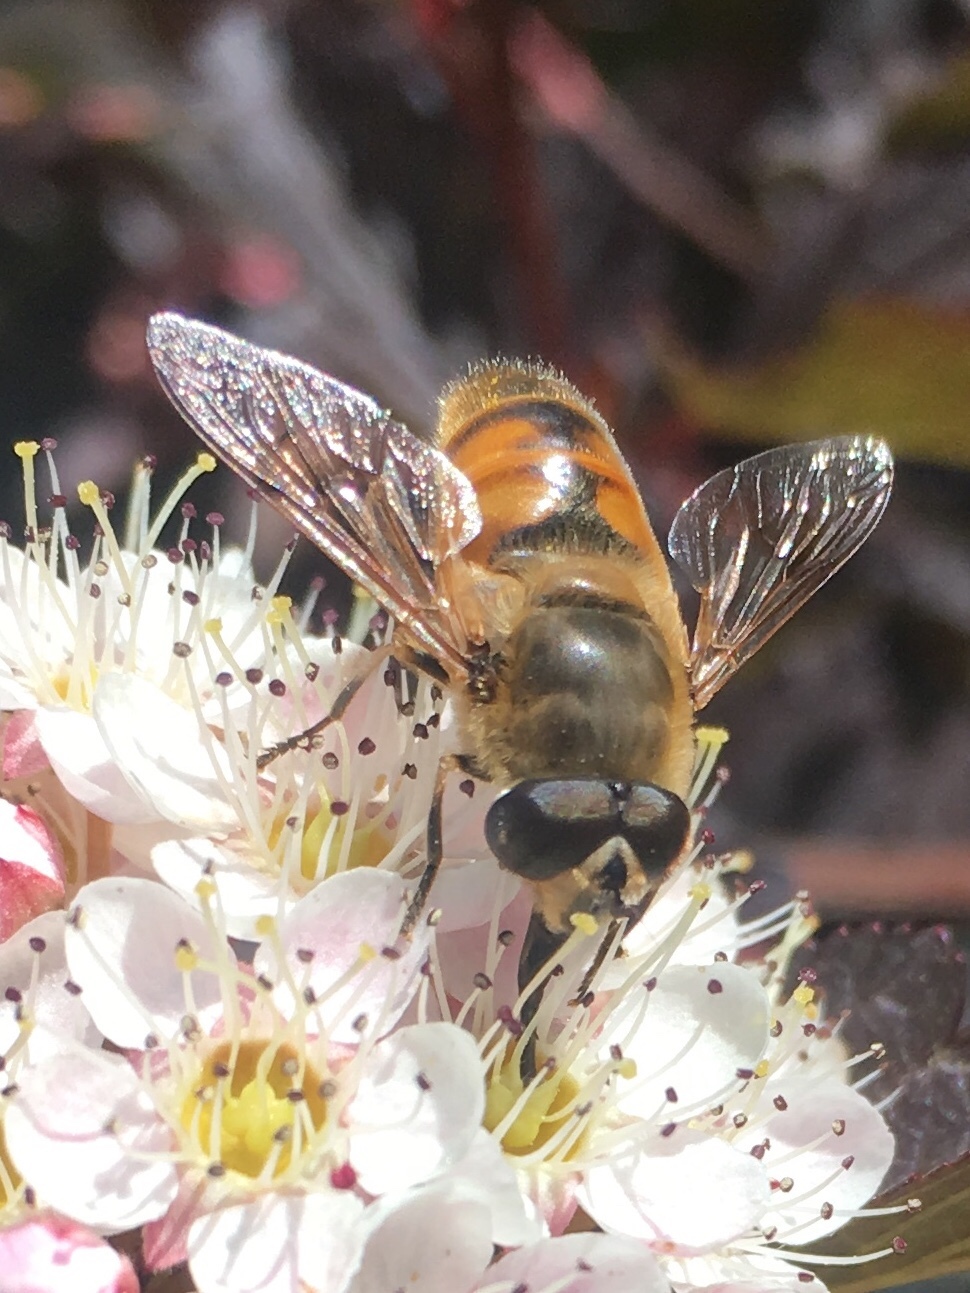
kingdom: Animalia
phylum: Arthropoda
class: Insecta
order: Diptera
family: Syrphidae
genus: Eristalis
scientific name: Eristalis tenax
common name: Drone fly
